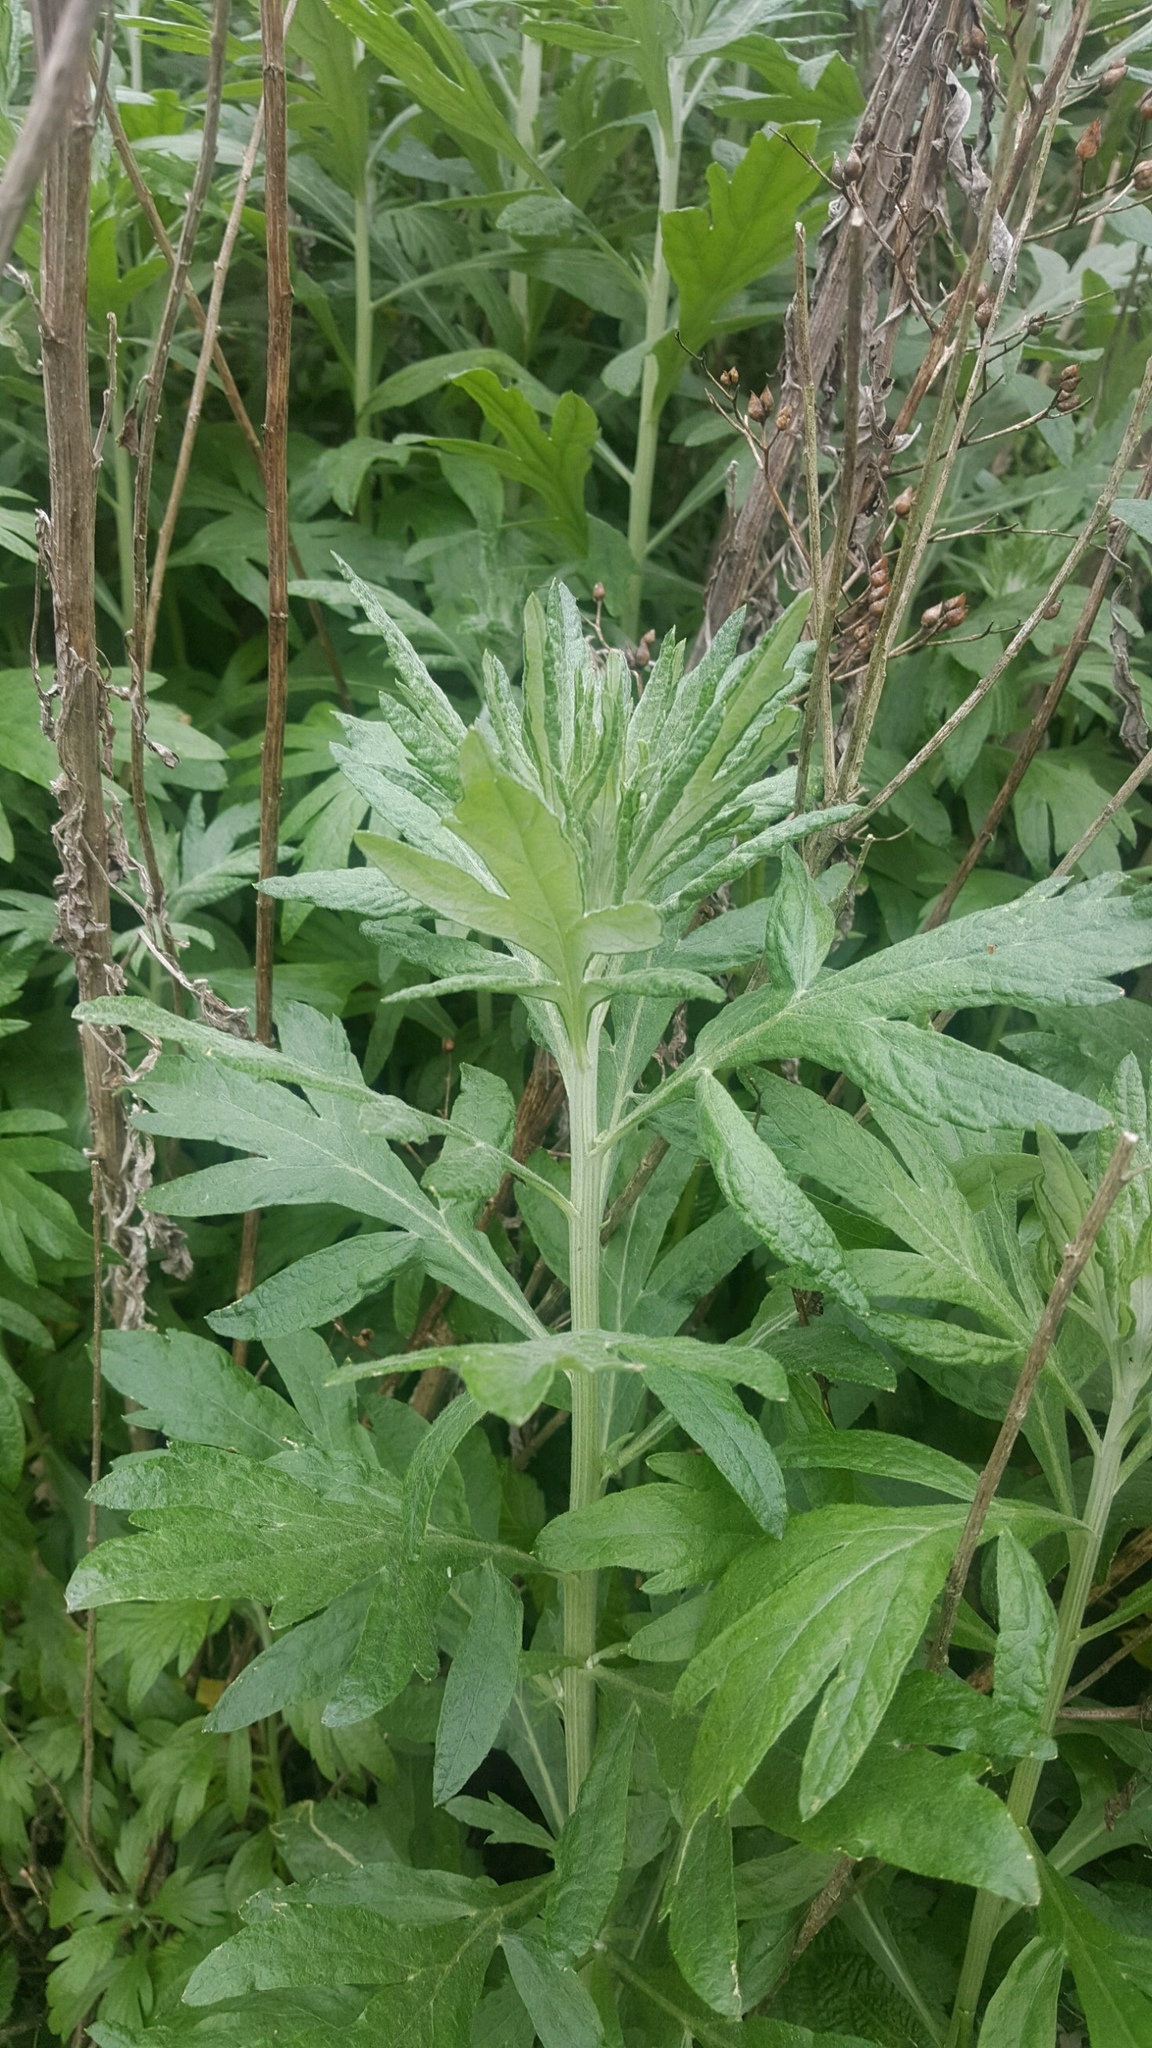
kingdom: Plantae
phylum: Tracheophyta
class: Magnoliopsida
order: Asterales
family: Asteraceae
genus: Artemisia
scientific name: Artemisia douglasiana
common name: Northwest mugwort
